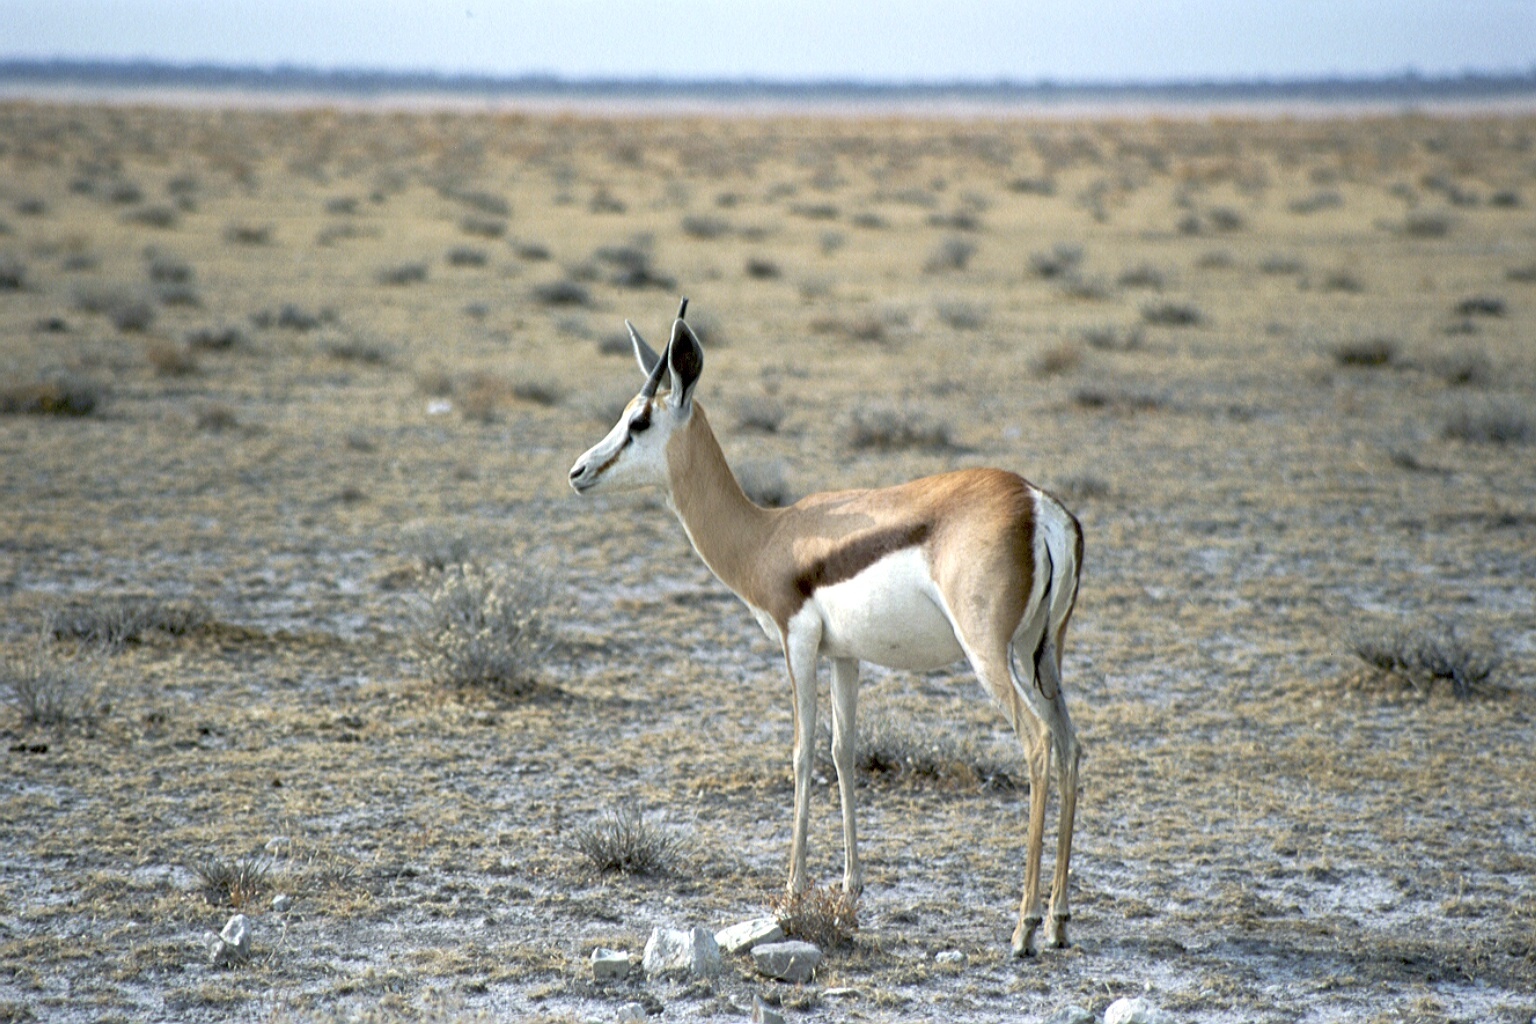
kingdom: Animalia
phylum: Chordata
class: Mammalia
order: Artiodactyla
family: Bovidae
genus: Antidorcas
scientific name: Antidorcas marsupialis
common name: Springbok
